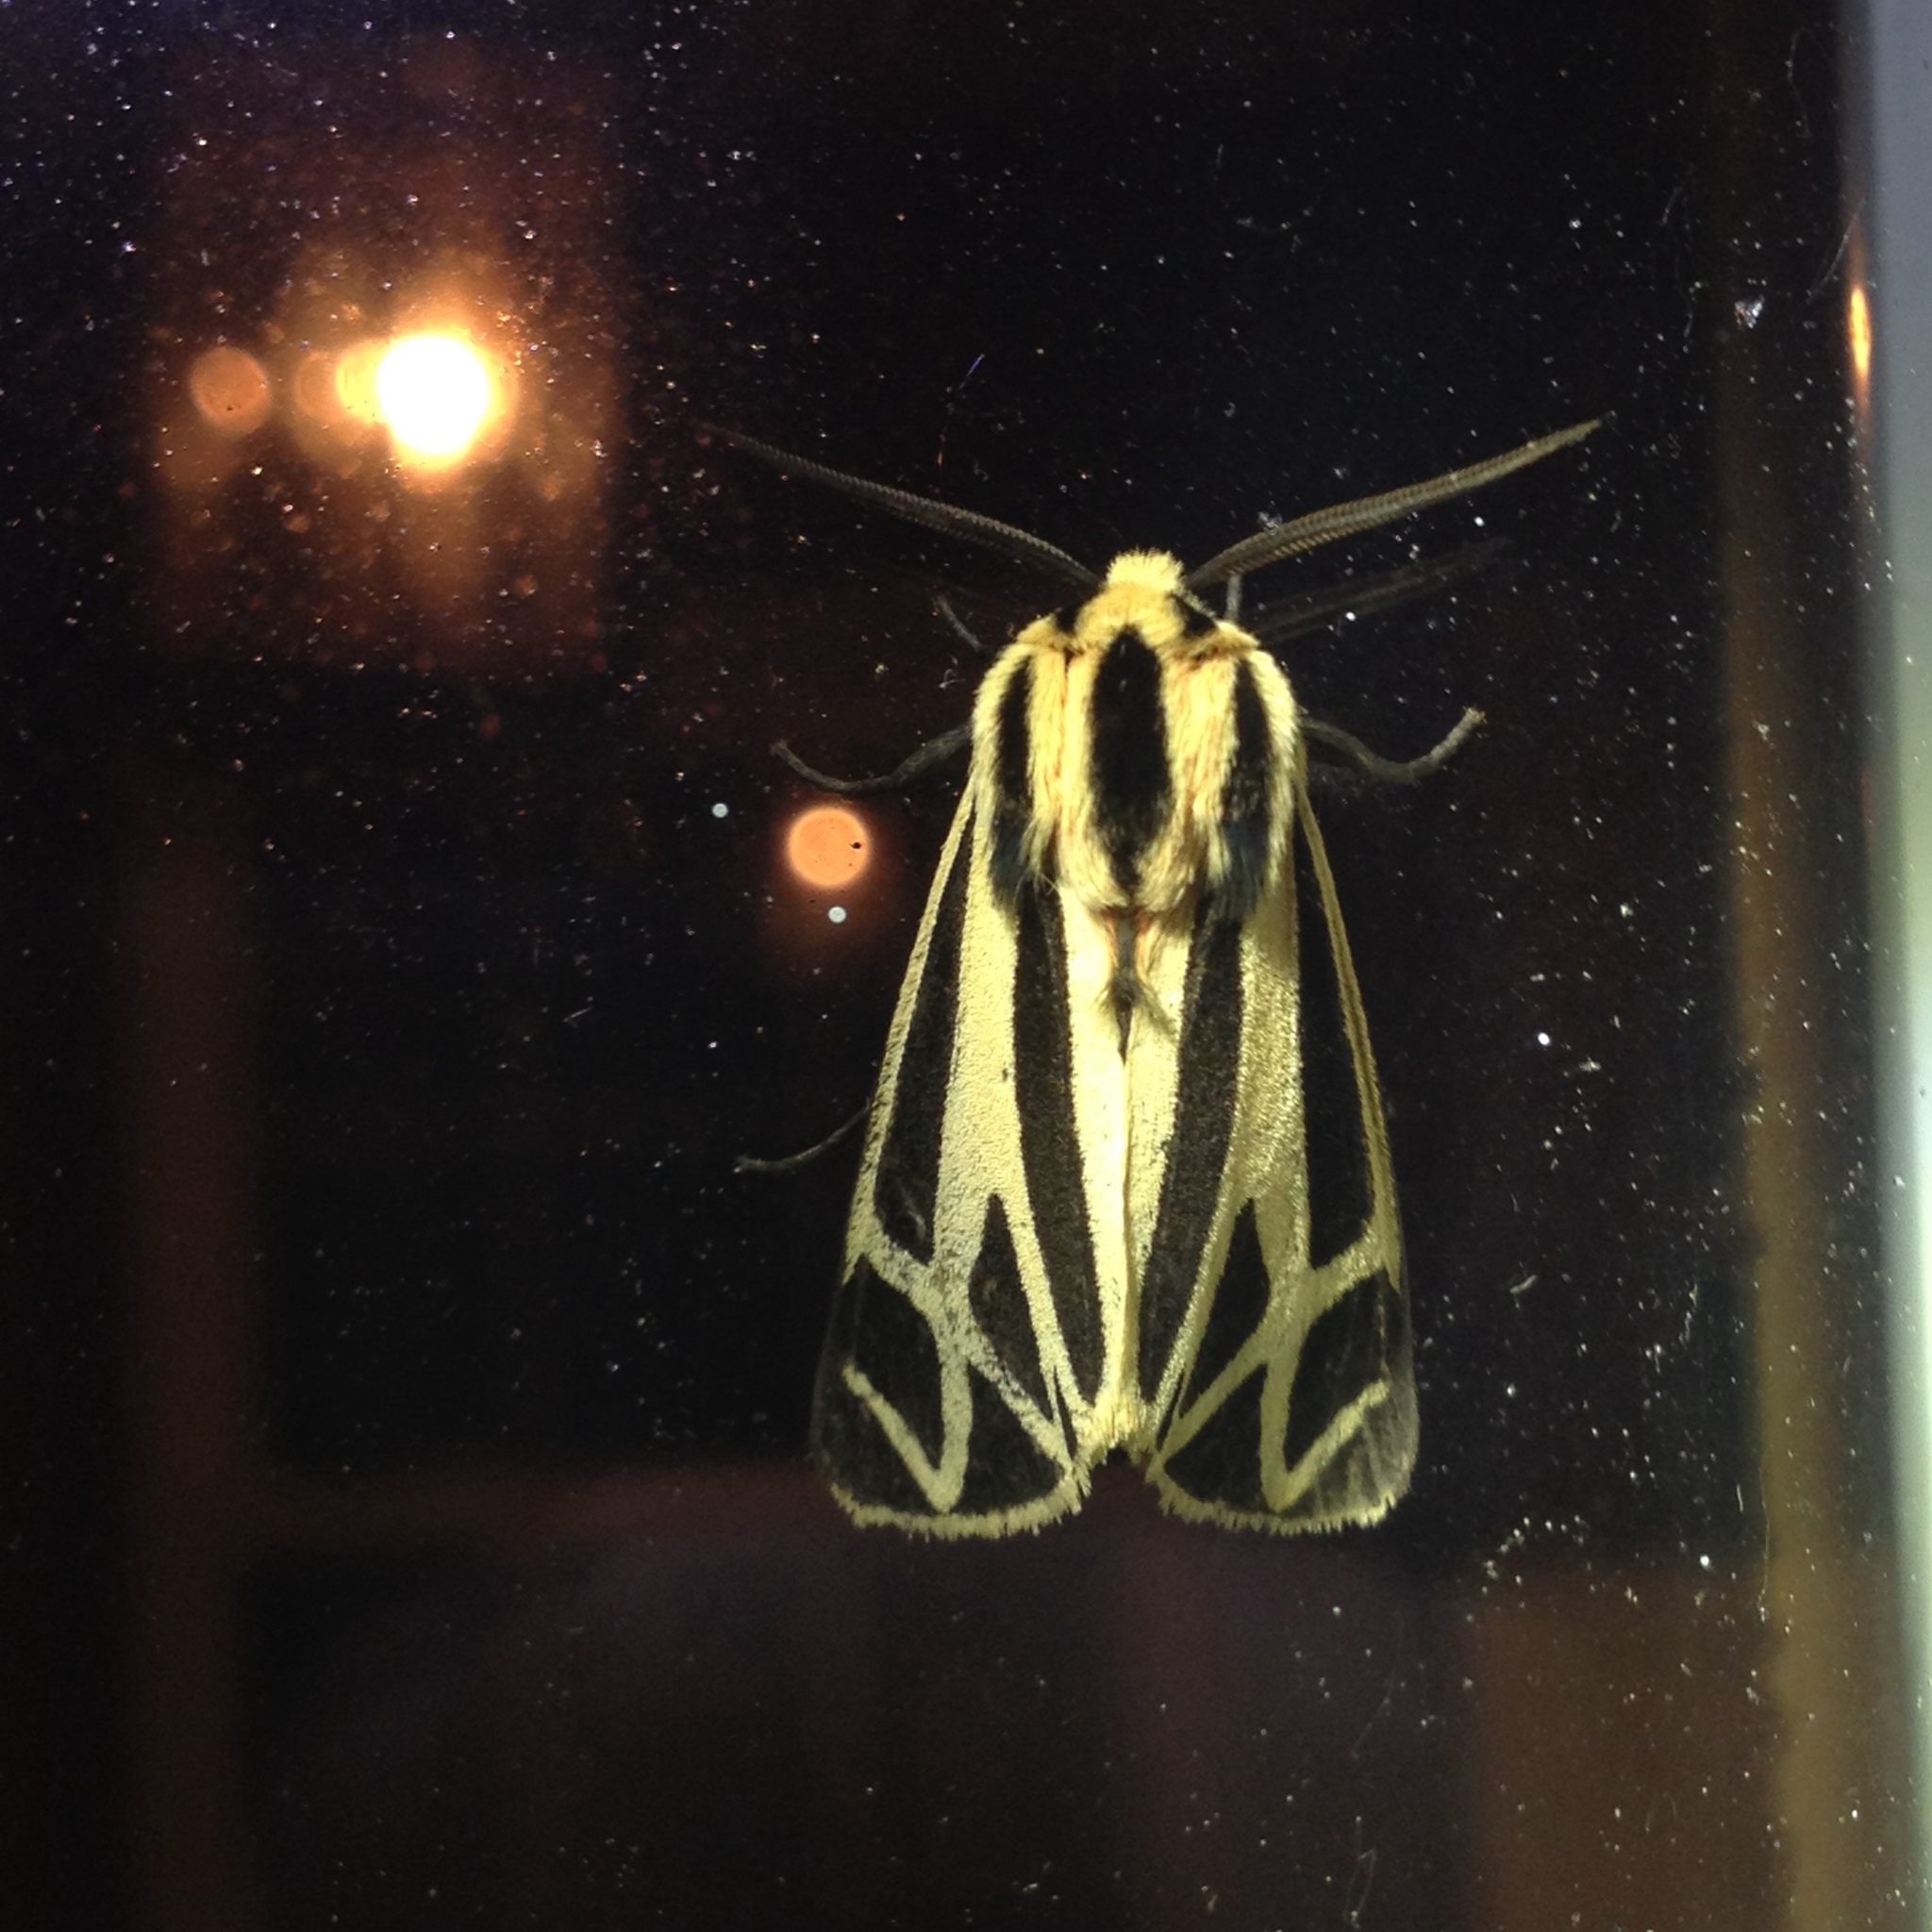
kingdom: Animalia
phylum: Arthropoda
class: Insecta
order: Lepidoptera
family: Erebidae
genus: Apantesis
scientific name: Apantesis phalerata
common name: Harnessed tiger moth
